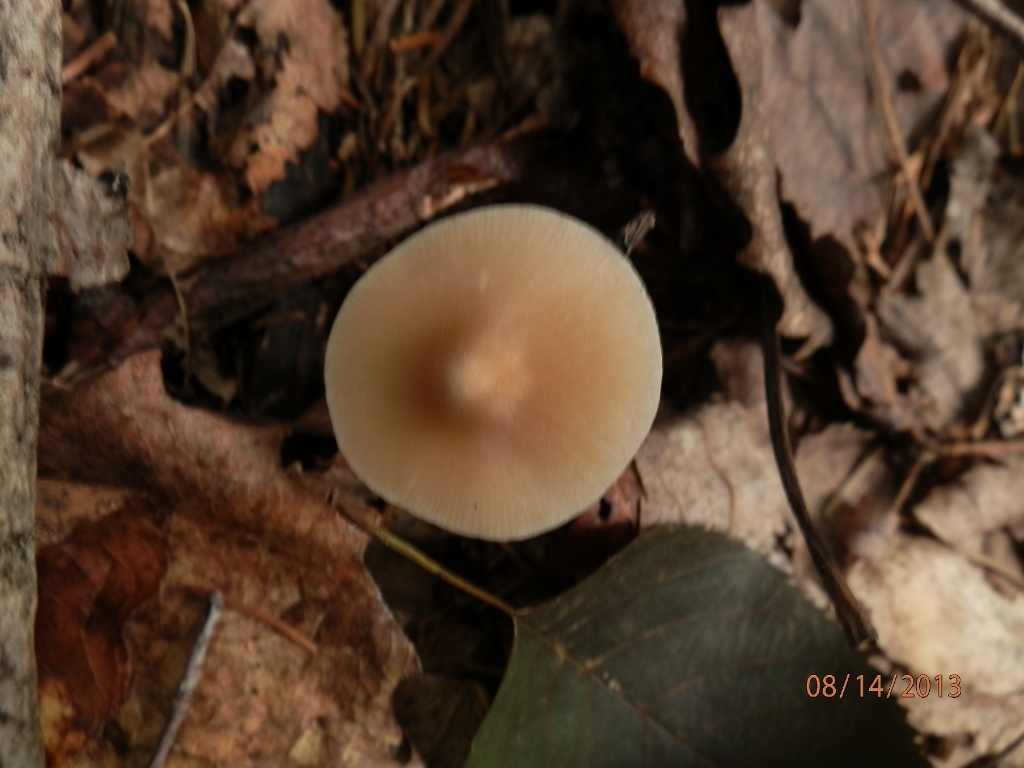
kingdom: Fungi
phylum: Basidiomycota
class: Agaricomycetes
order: Agaricales
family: Entolomataceae
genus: Entoloma
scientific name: Entoloma strictius
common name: Straight-stalked entoloma
